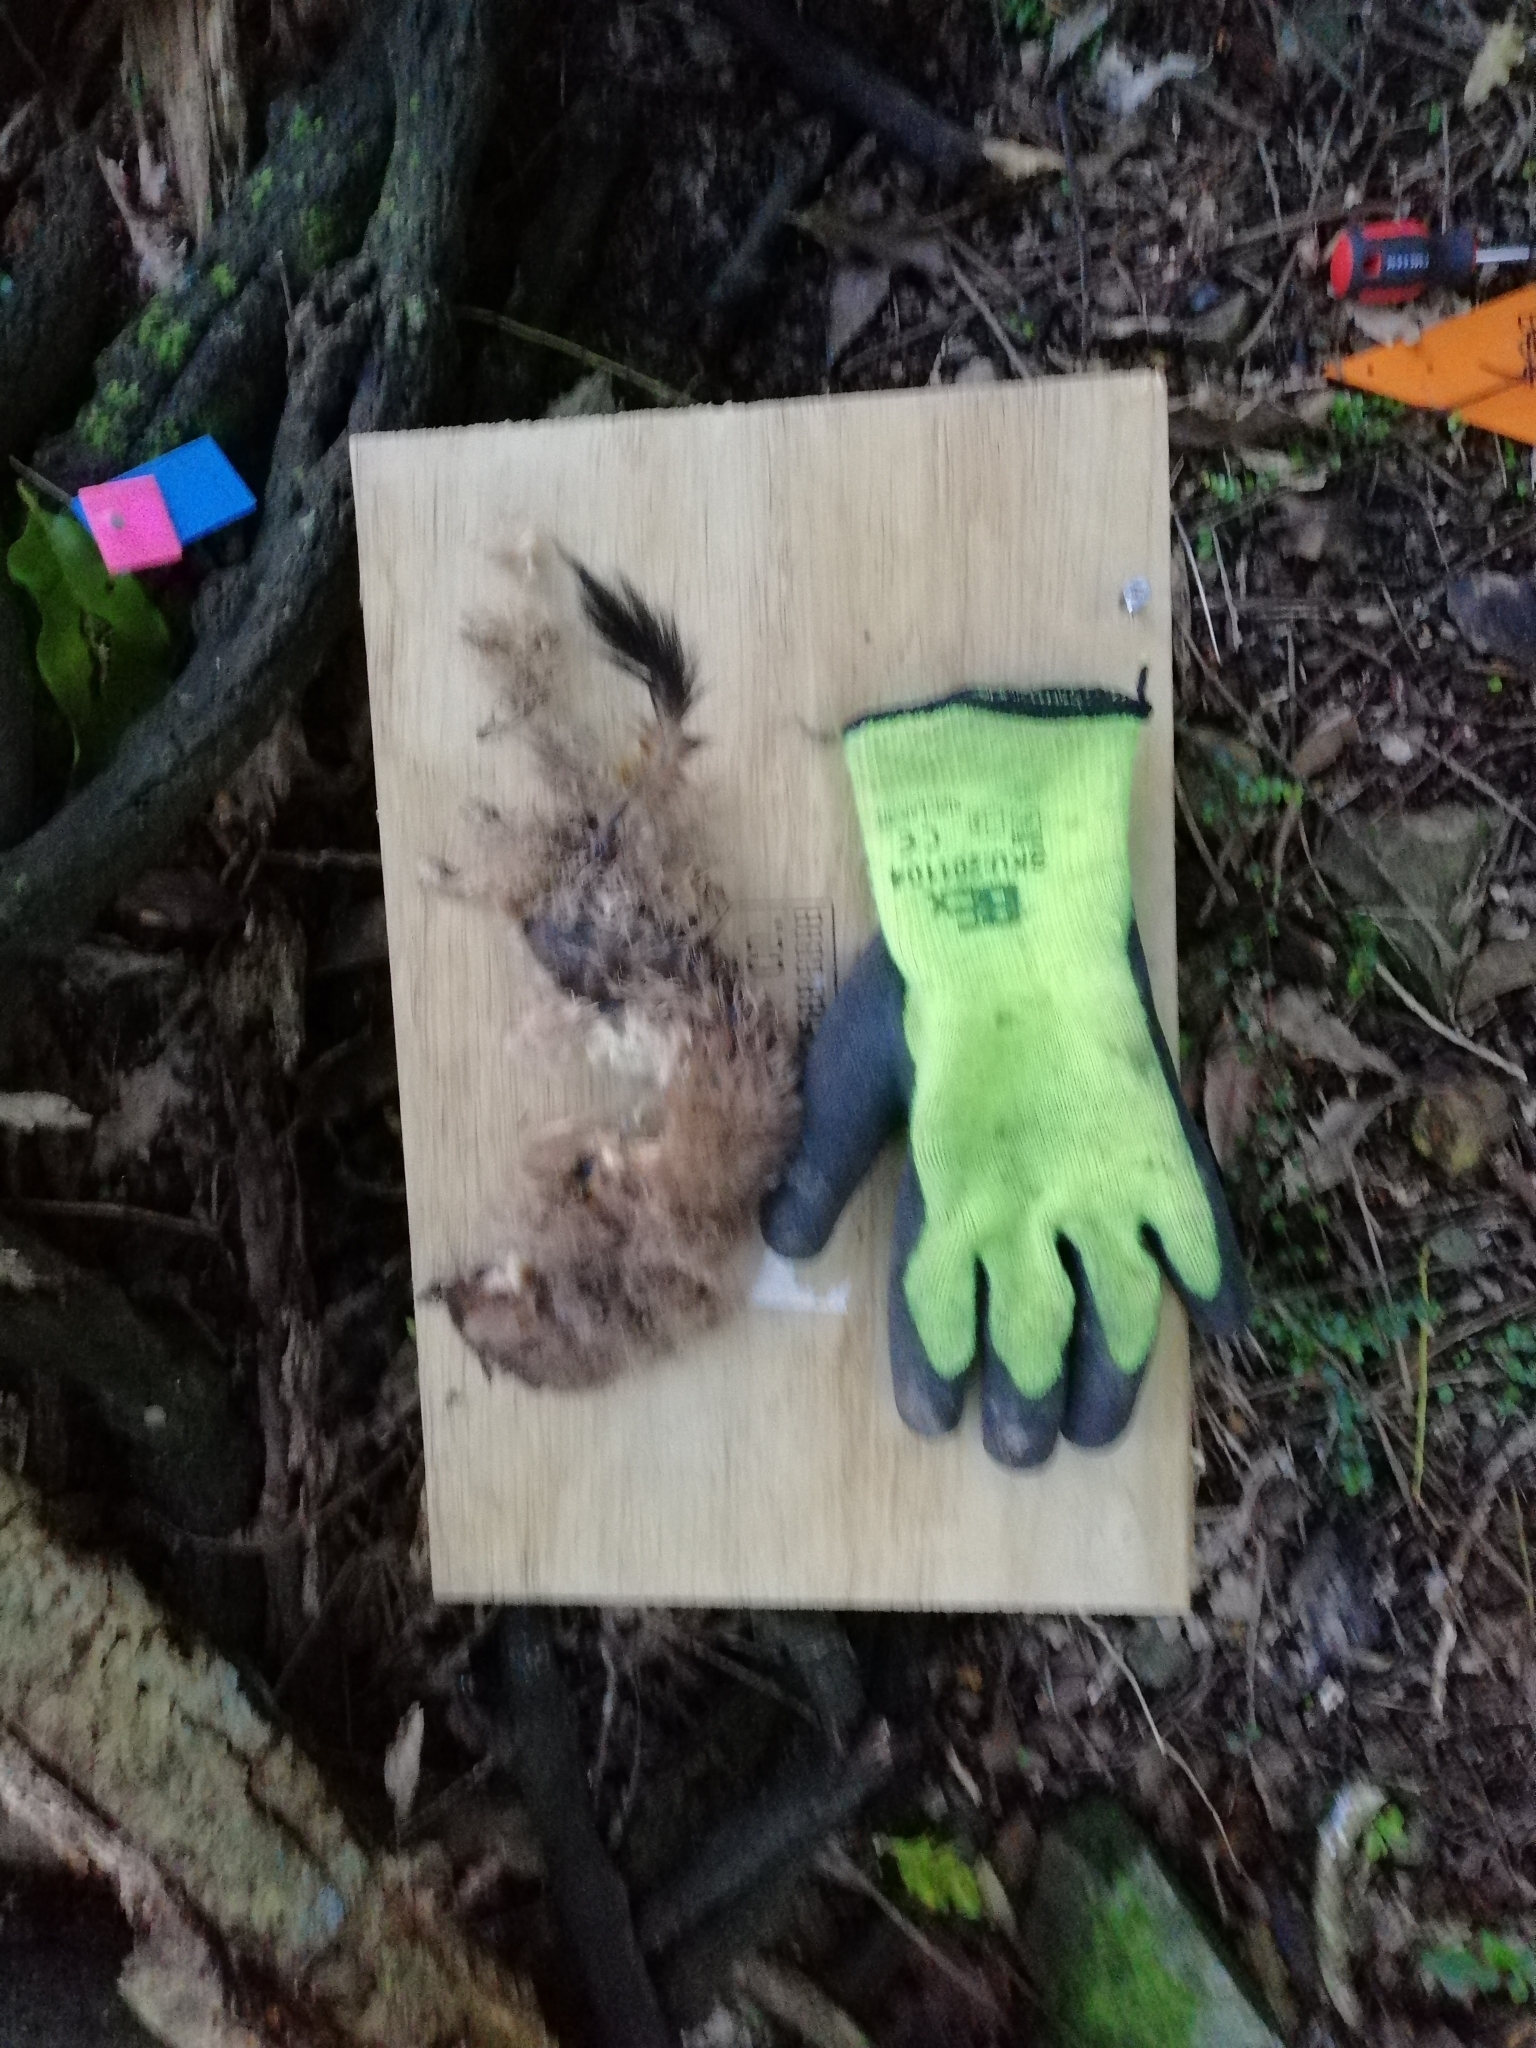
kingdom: Animalia
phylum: Chordata
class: Mammalia
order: Carnivora
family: Mustelidae
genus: Mustela
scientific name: Mustela erminea
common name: Stoat
